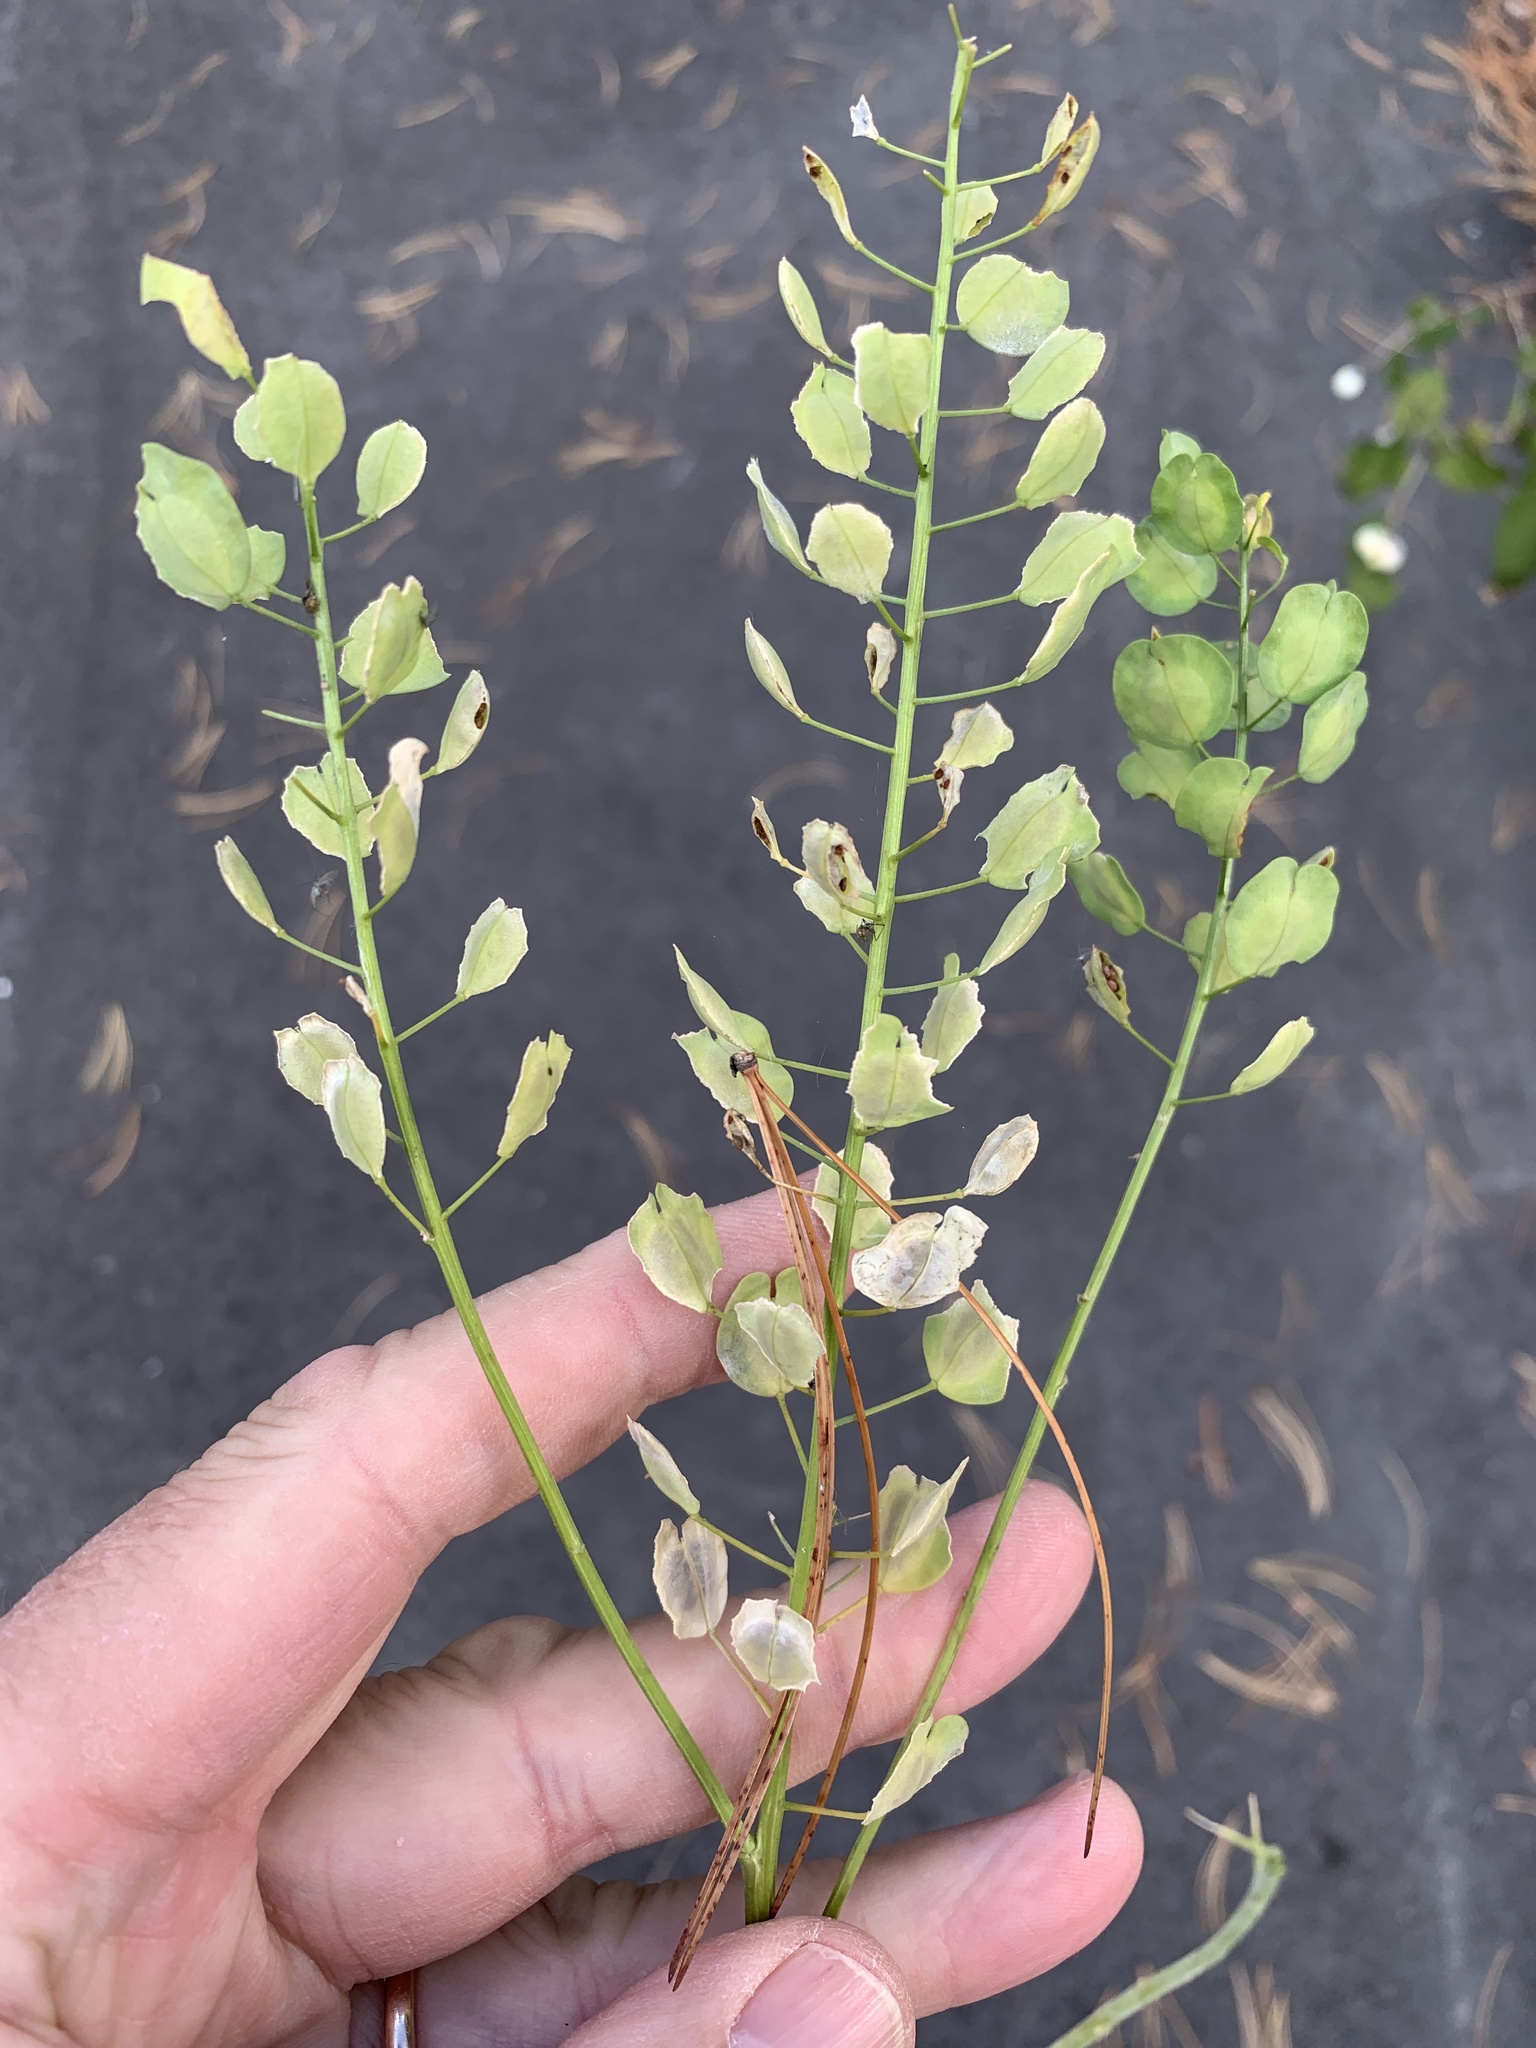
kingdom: Plantae
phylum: Tracheophyta
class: Magnoliopsida
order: Brassicales
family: Brassicaceae
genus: Thlaspi
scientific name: Thlaspi arvense
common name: Field pennycress
